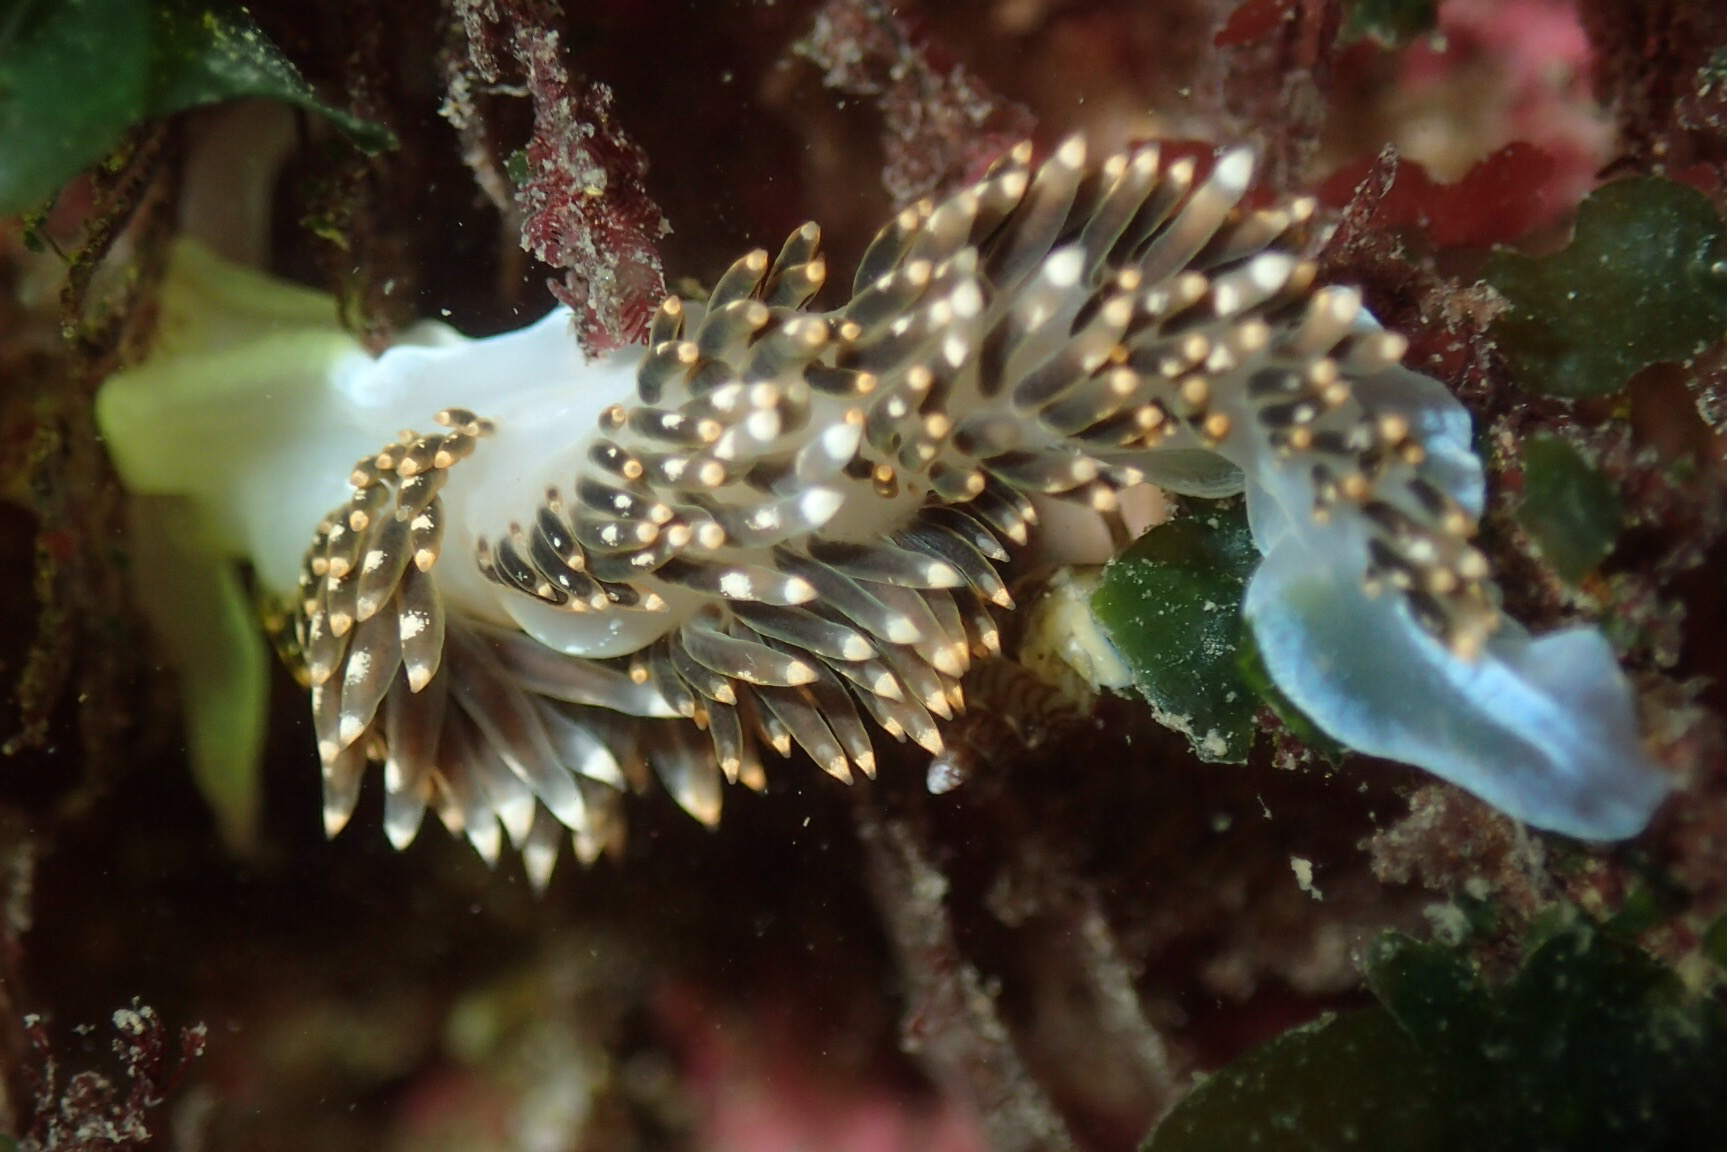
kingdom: Animalia
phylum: Mollusca
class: Gastropoda
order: Nudibranchia
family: Facelinidae
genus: Phidiana
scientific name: Phidiana hiltoni
